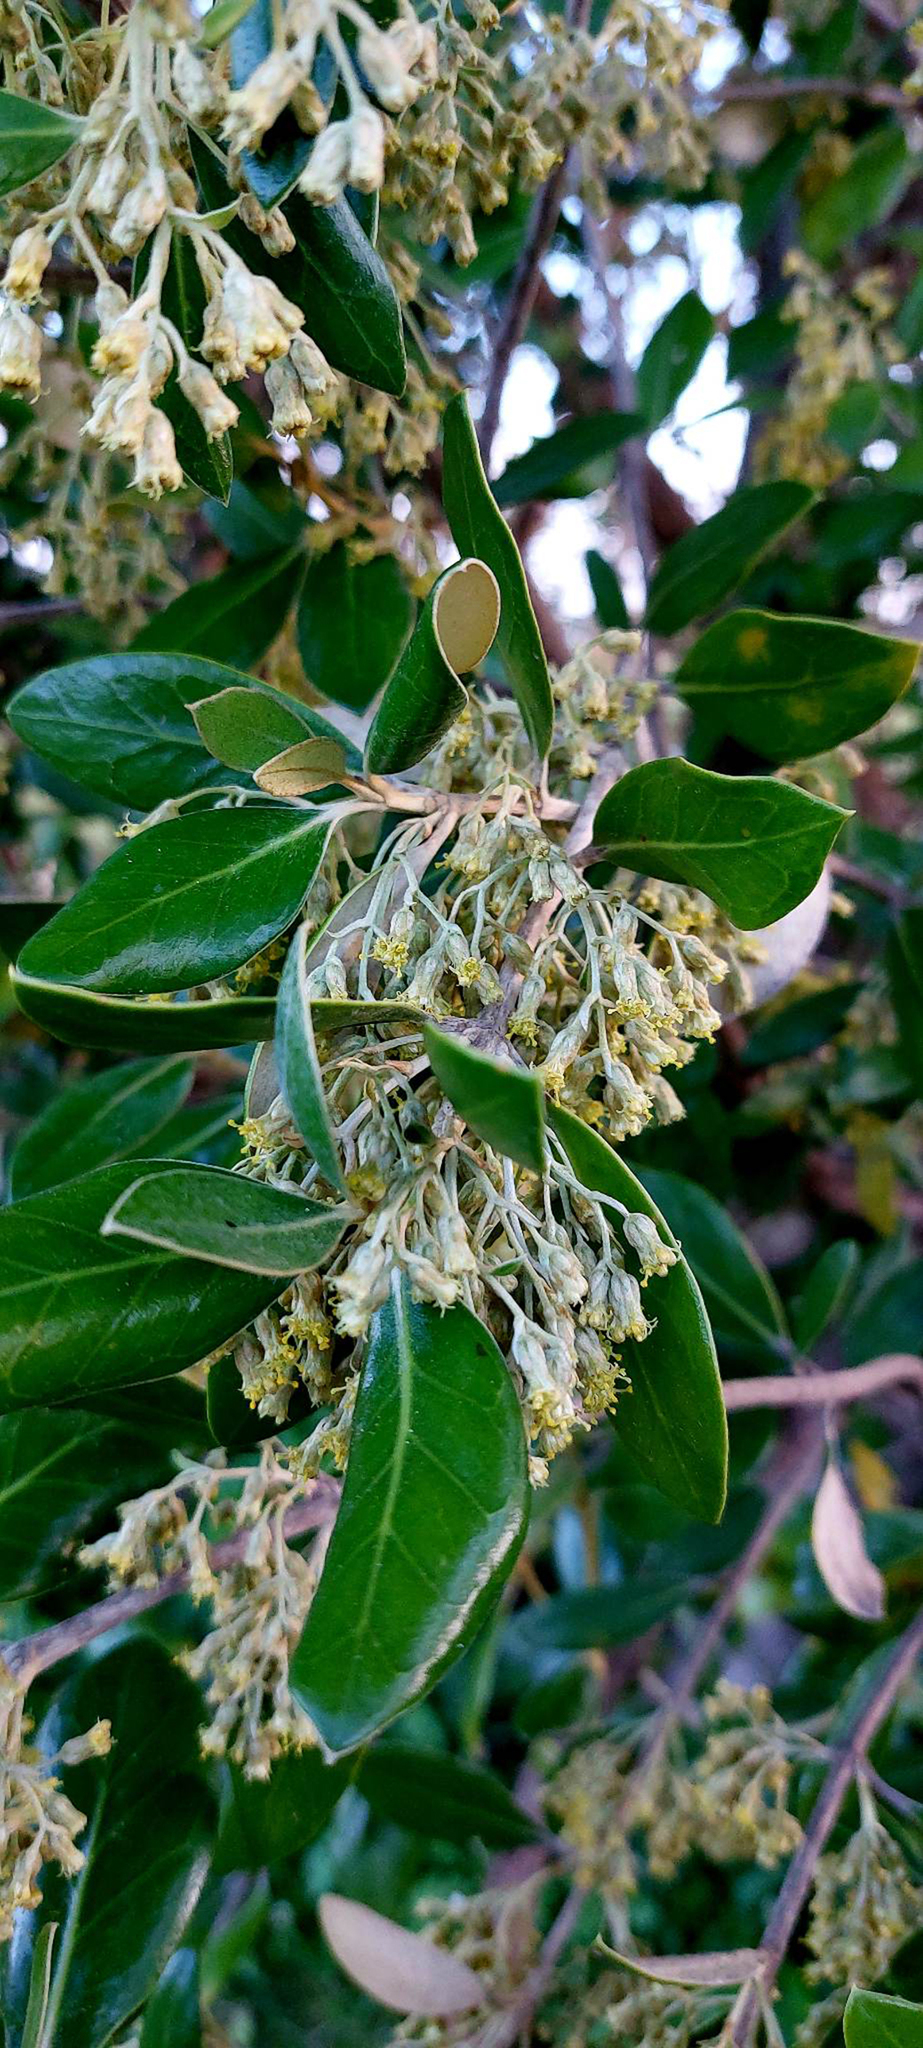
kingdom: Plantae
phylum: Tracheophyta
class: Magnoliopsida
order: Asterales
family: Asteraceae
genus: Olearia
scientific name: Olearia traversiorum
